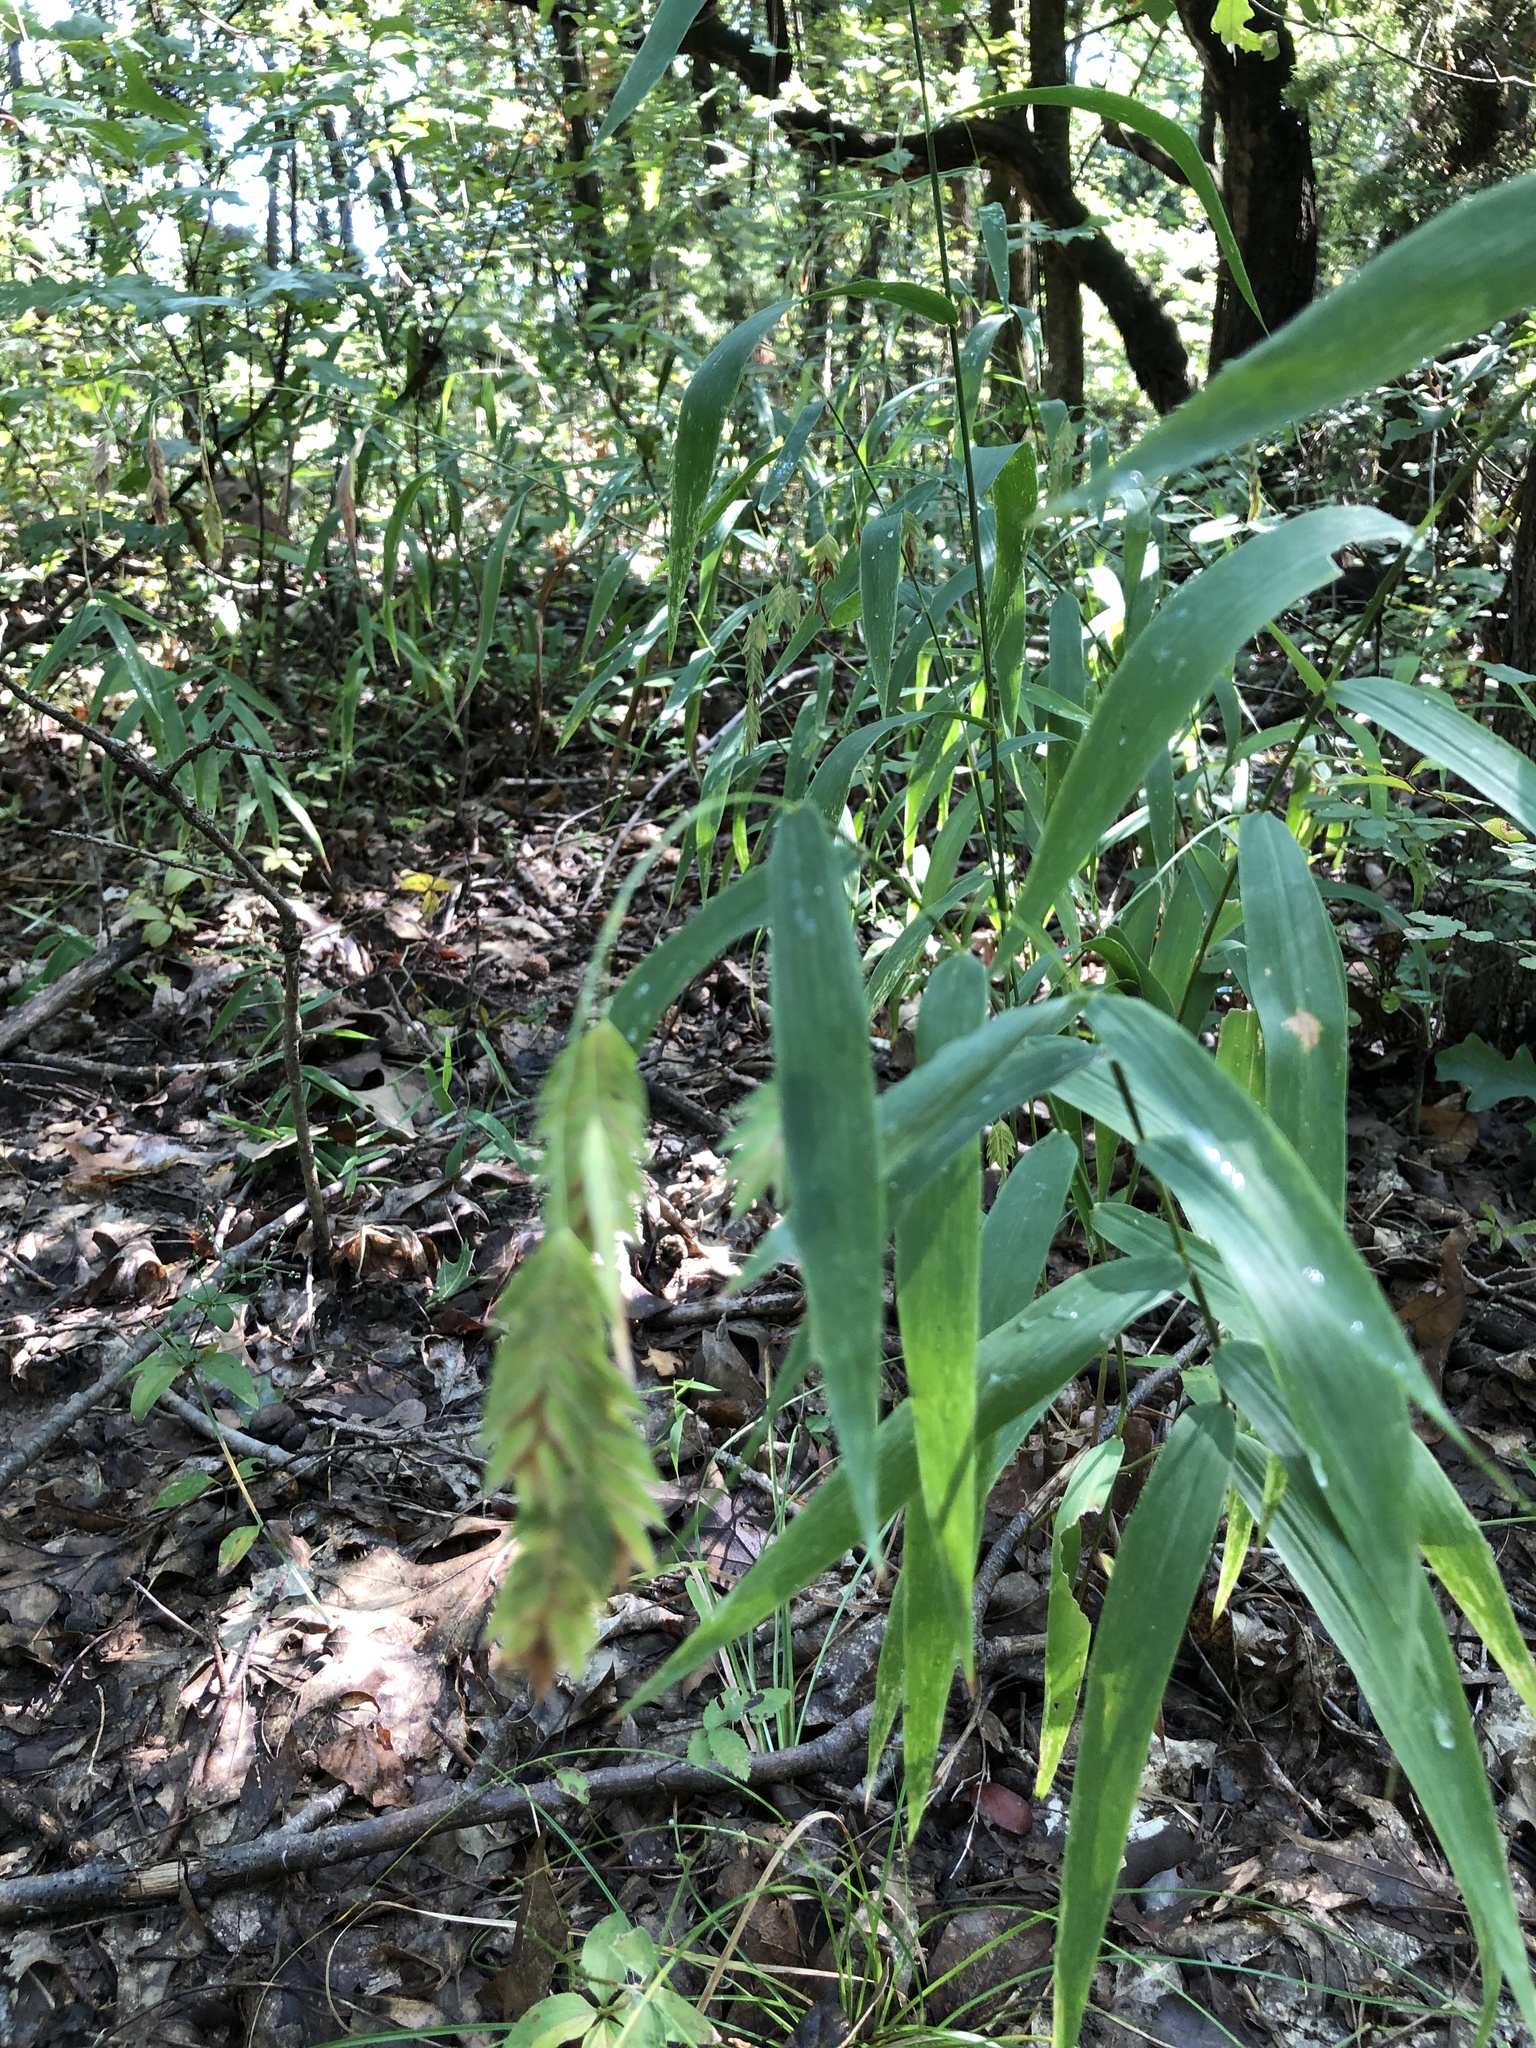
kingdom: Plantae
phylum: Tracheophyta
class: Liliopsida
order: Poales
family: Poaceae
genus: Chasmanthium
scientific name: Chasmanthium latifolium
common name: Broad-leaved chasmanthium
